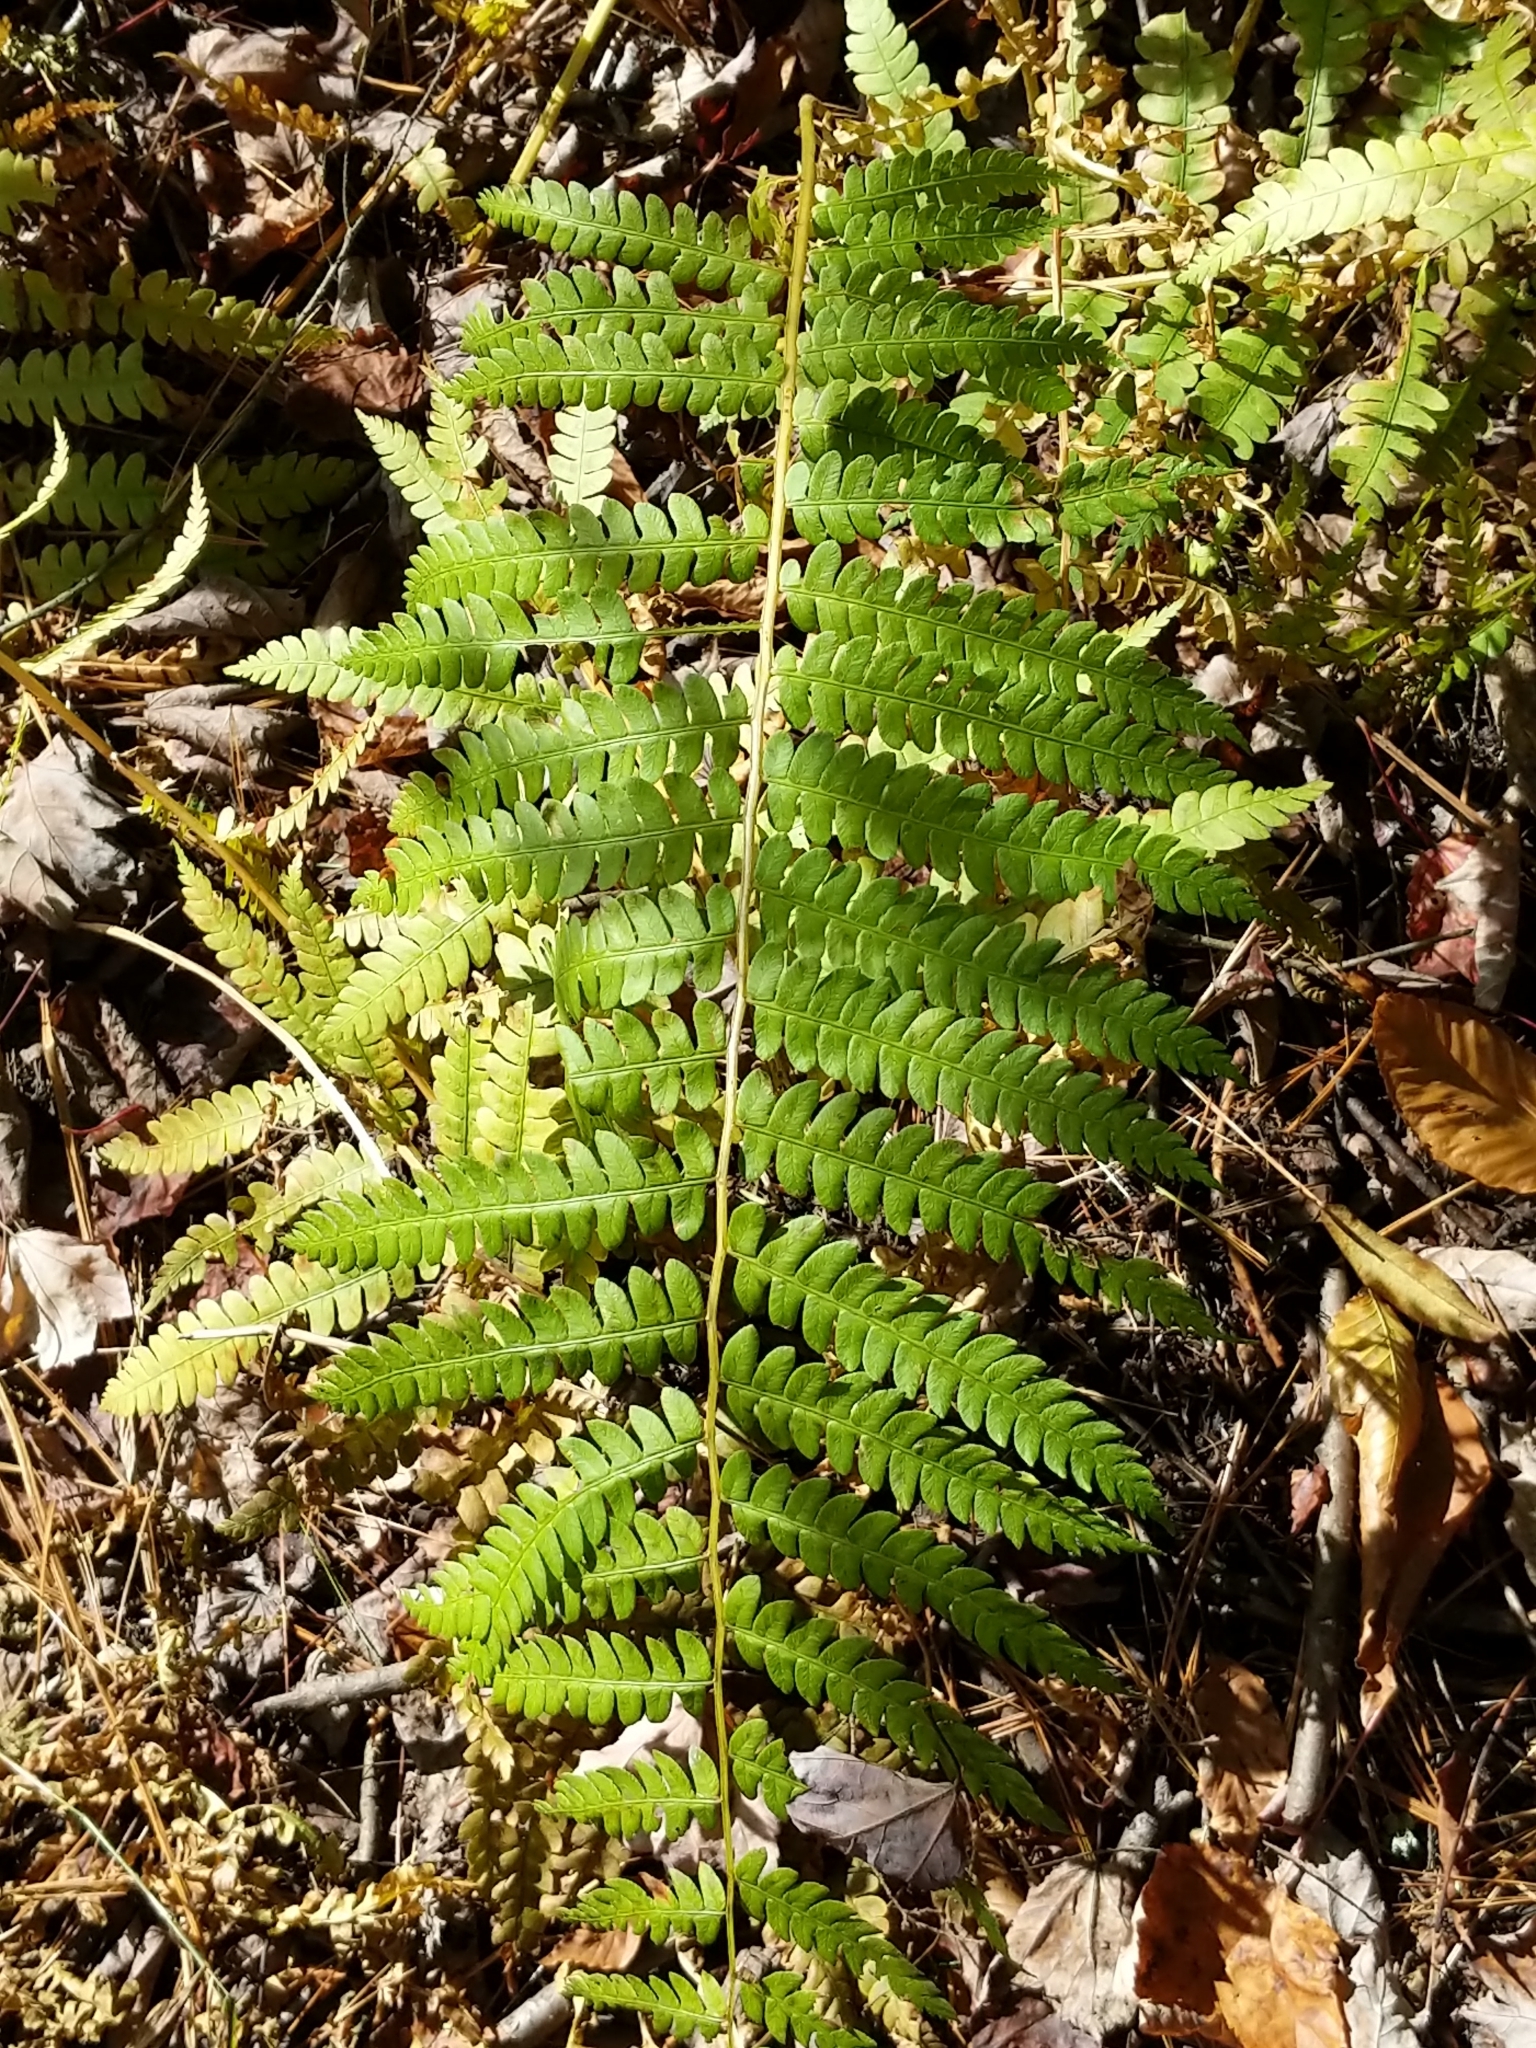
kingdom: Plantae
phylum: Tracheophyta
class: Polypodiopsida
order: Osmundales
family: Osmundaceae
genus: Osmundastrum
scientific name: Osmundastrum cinnamomeum
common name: Cinnamon fern
